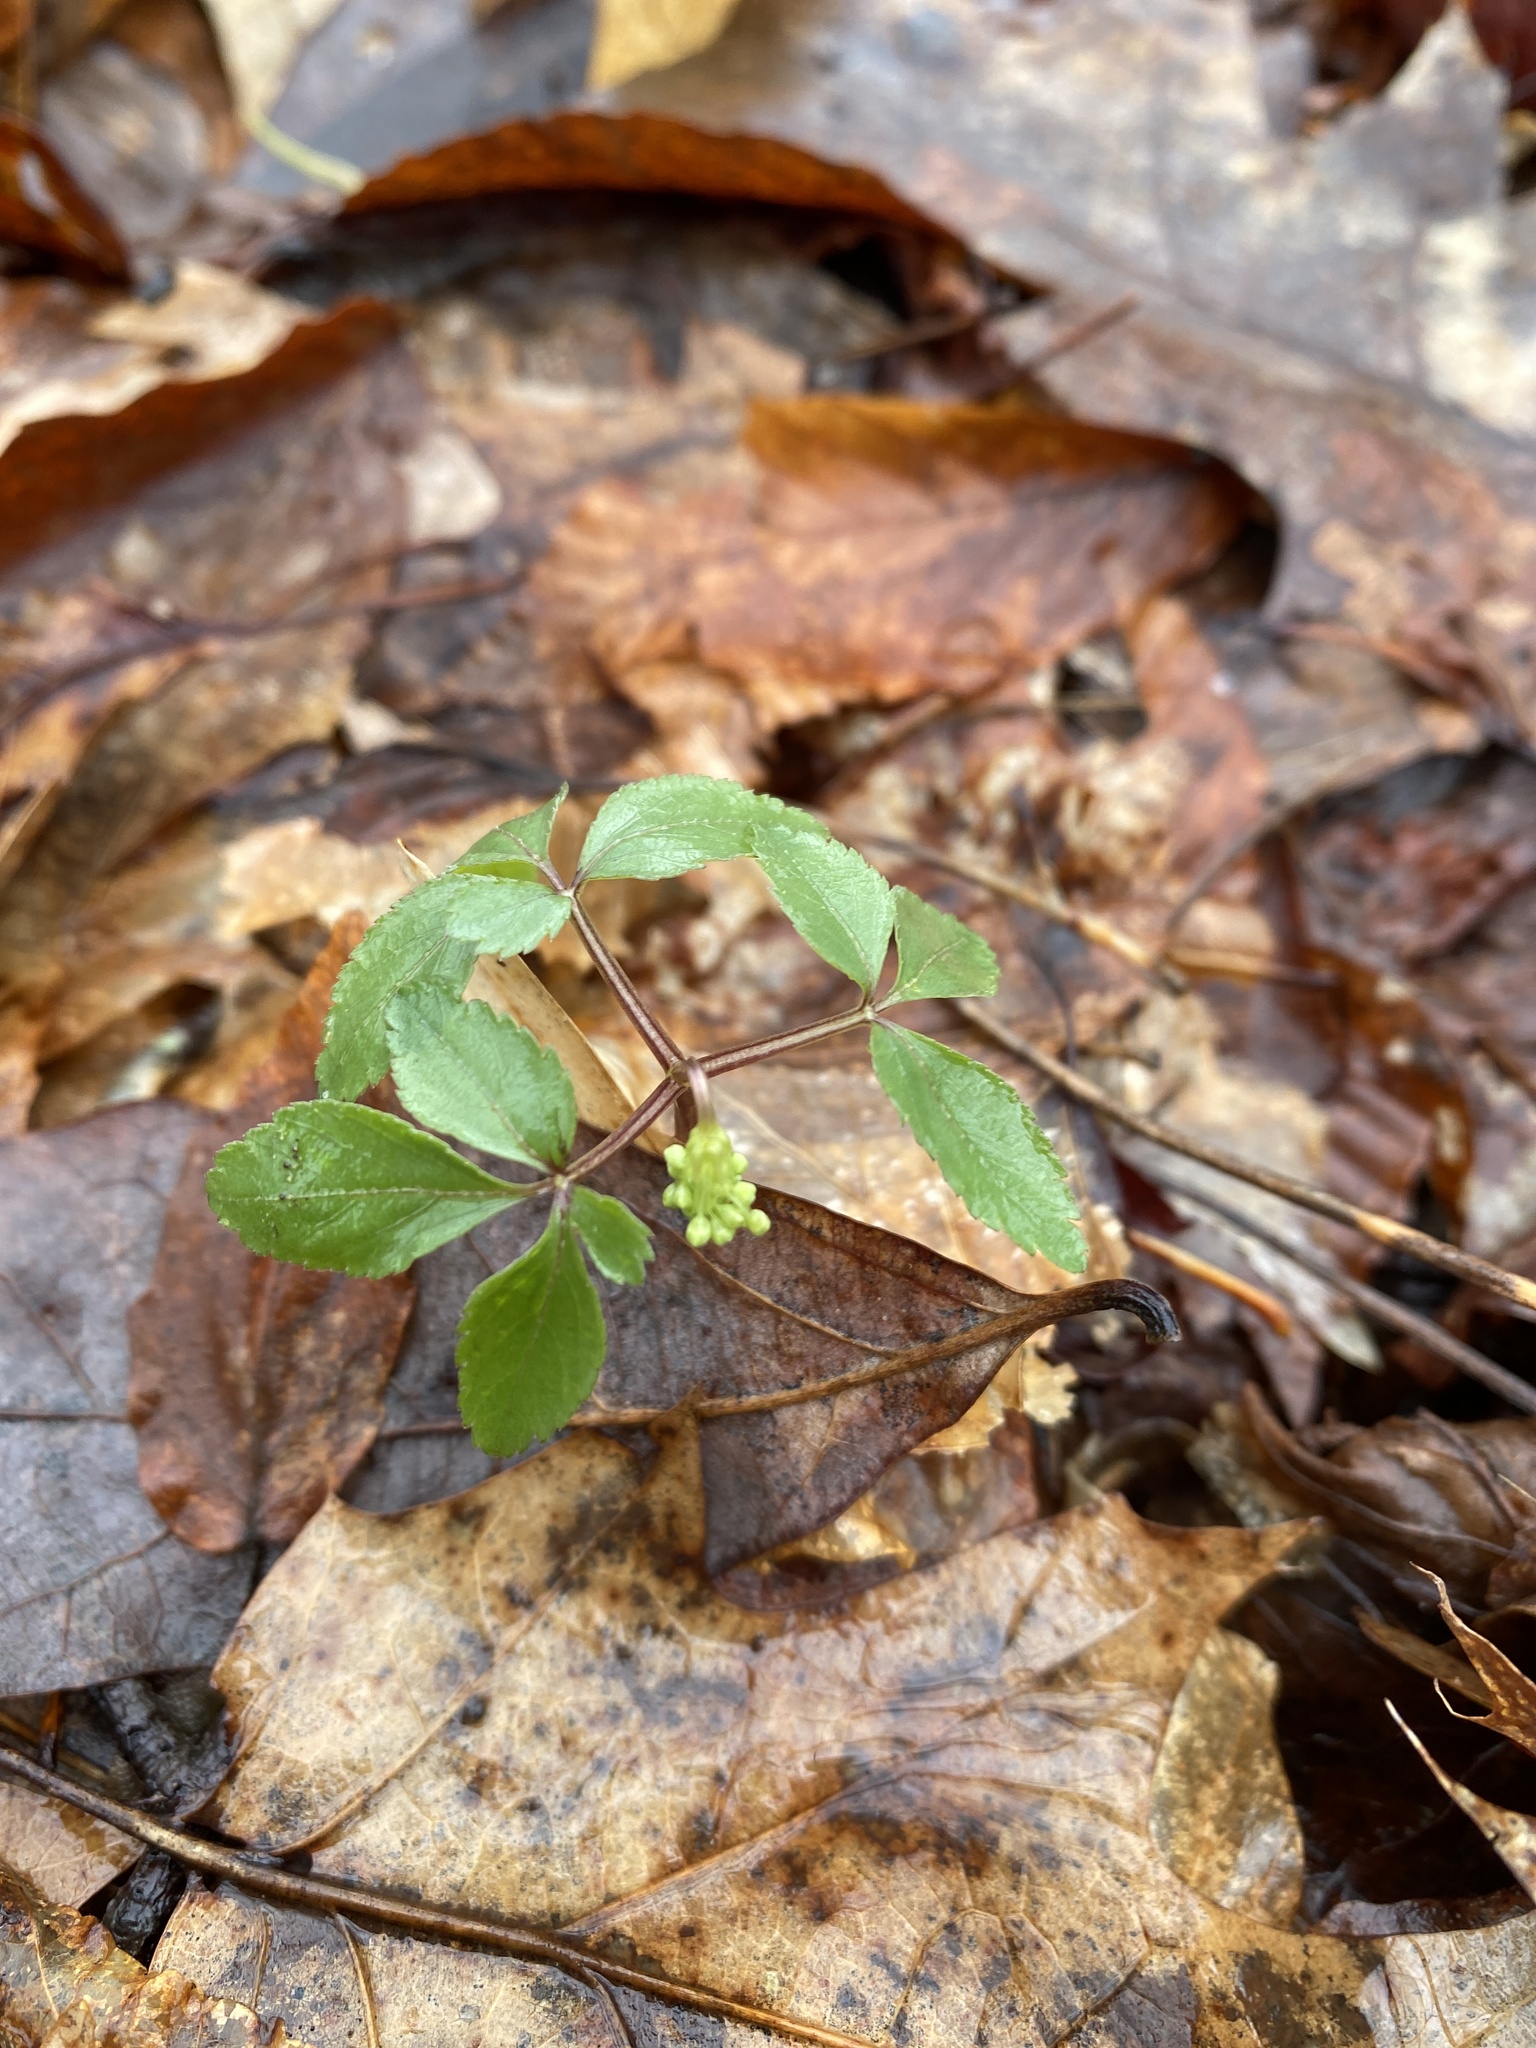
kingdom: Plantae
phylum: Tracheophyta
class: Magnoliopsida
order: Apiales
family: Araliaceae
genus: Panax
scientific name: Panax trifolius
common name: Dwarf ginseng
